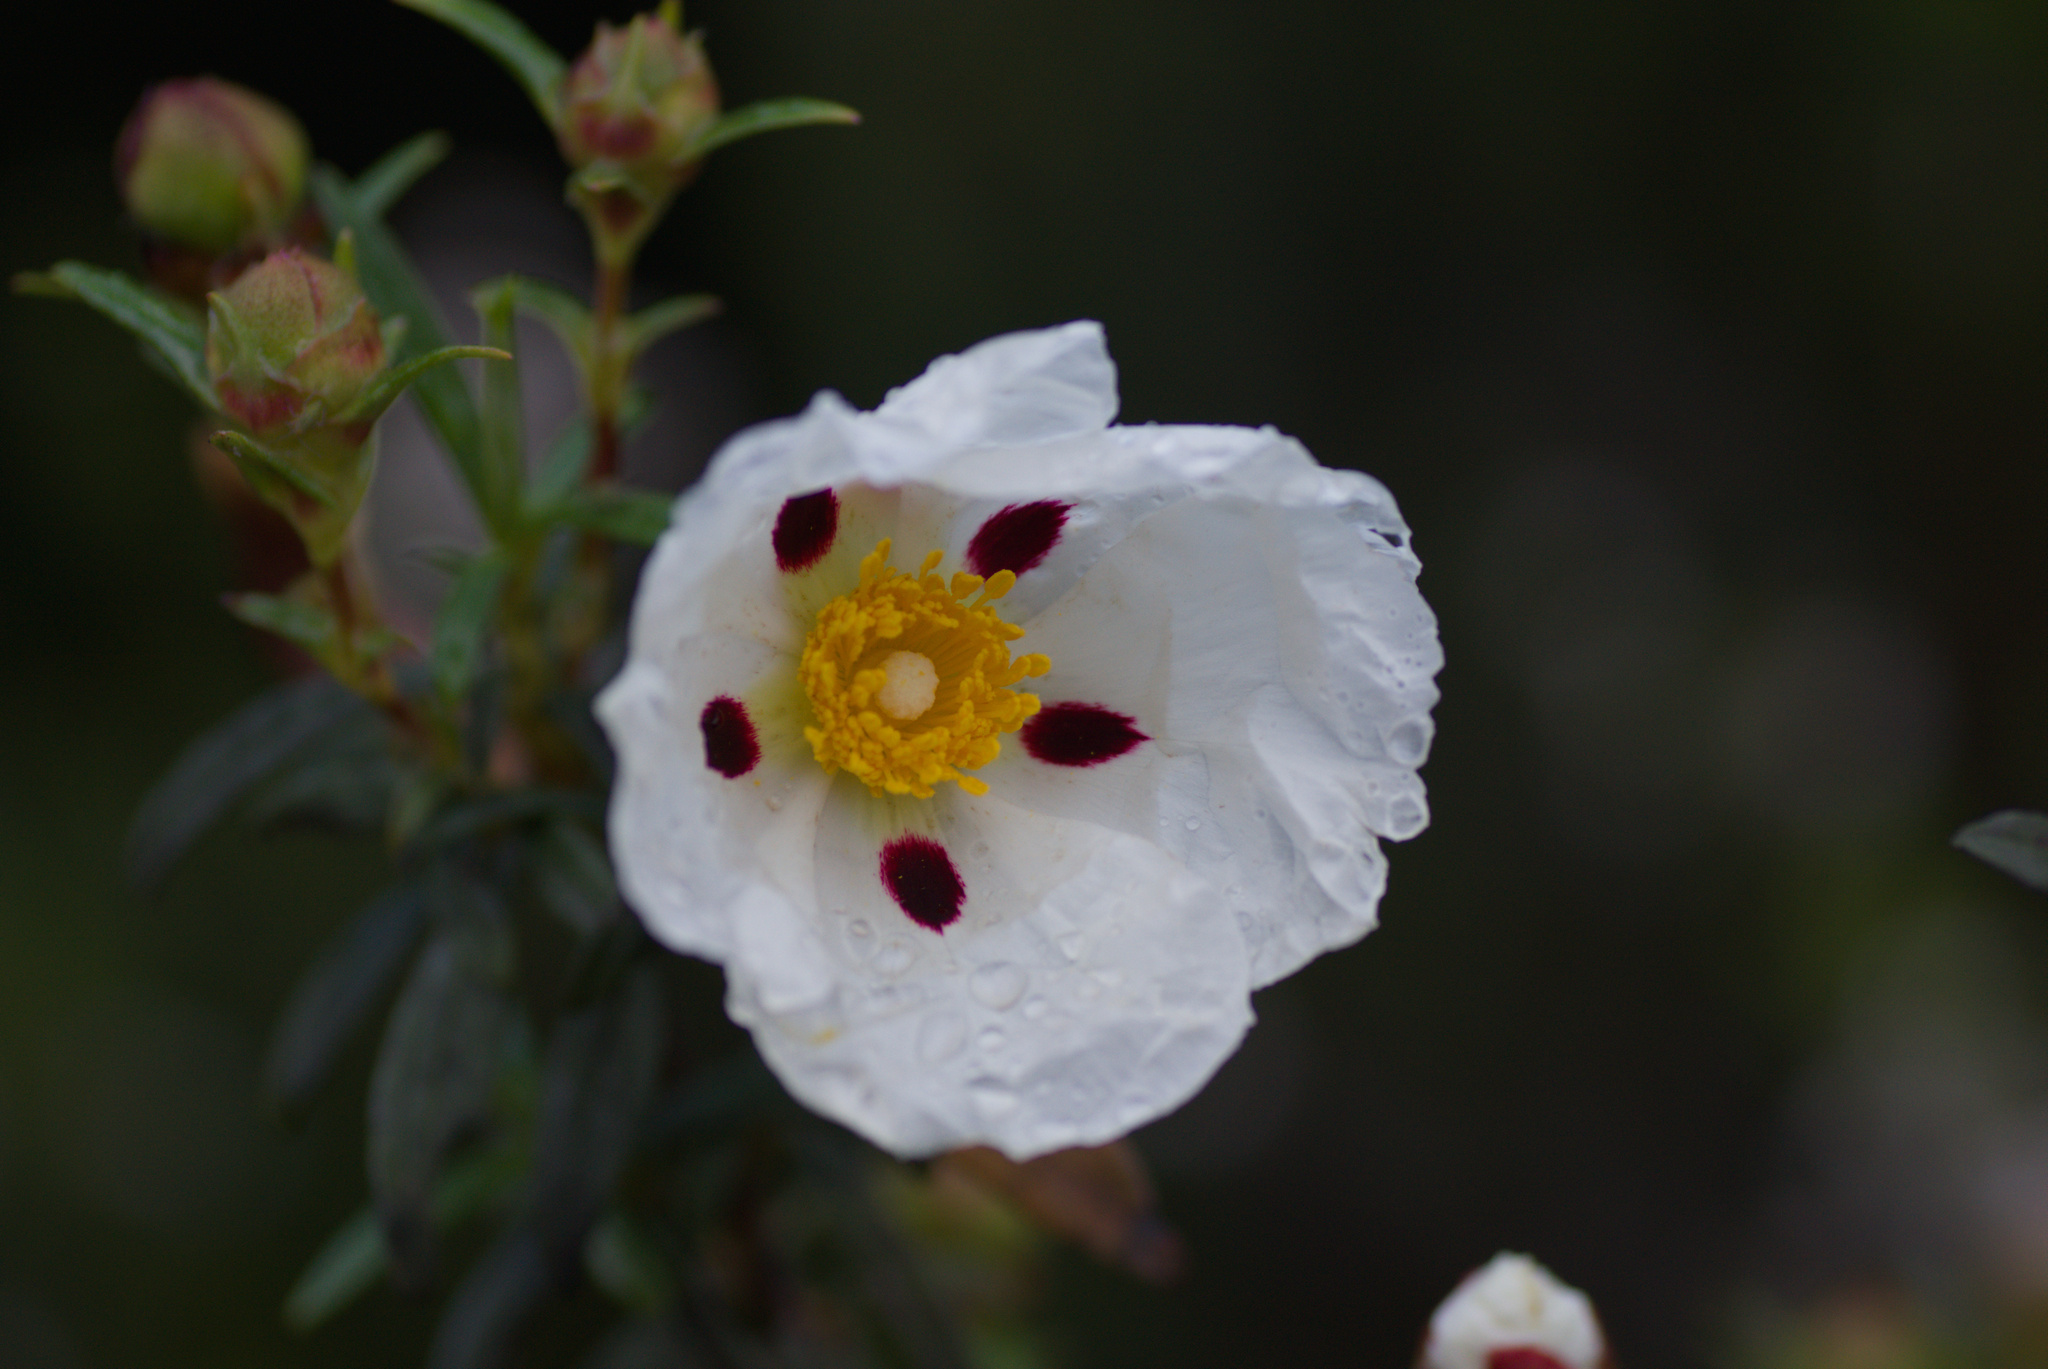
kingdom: Plantae
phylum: Tracheophyta
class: Magnoliopsida
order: Malvales
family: Cistaceae
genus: Cistus
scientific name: Cistus ladanifer
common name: Common gum cistus
